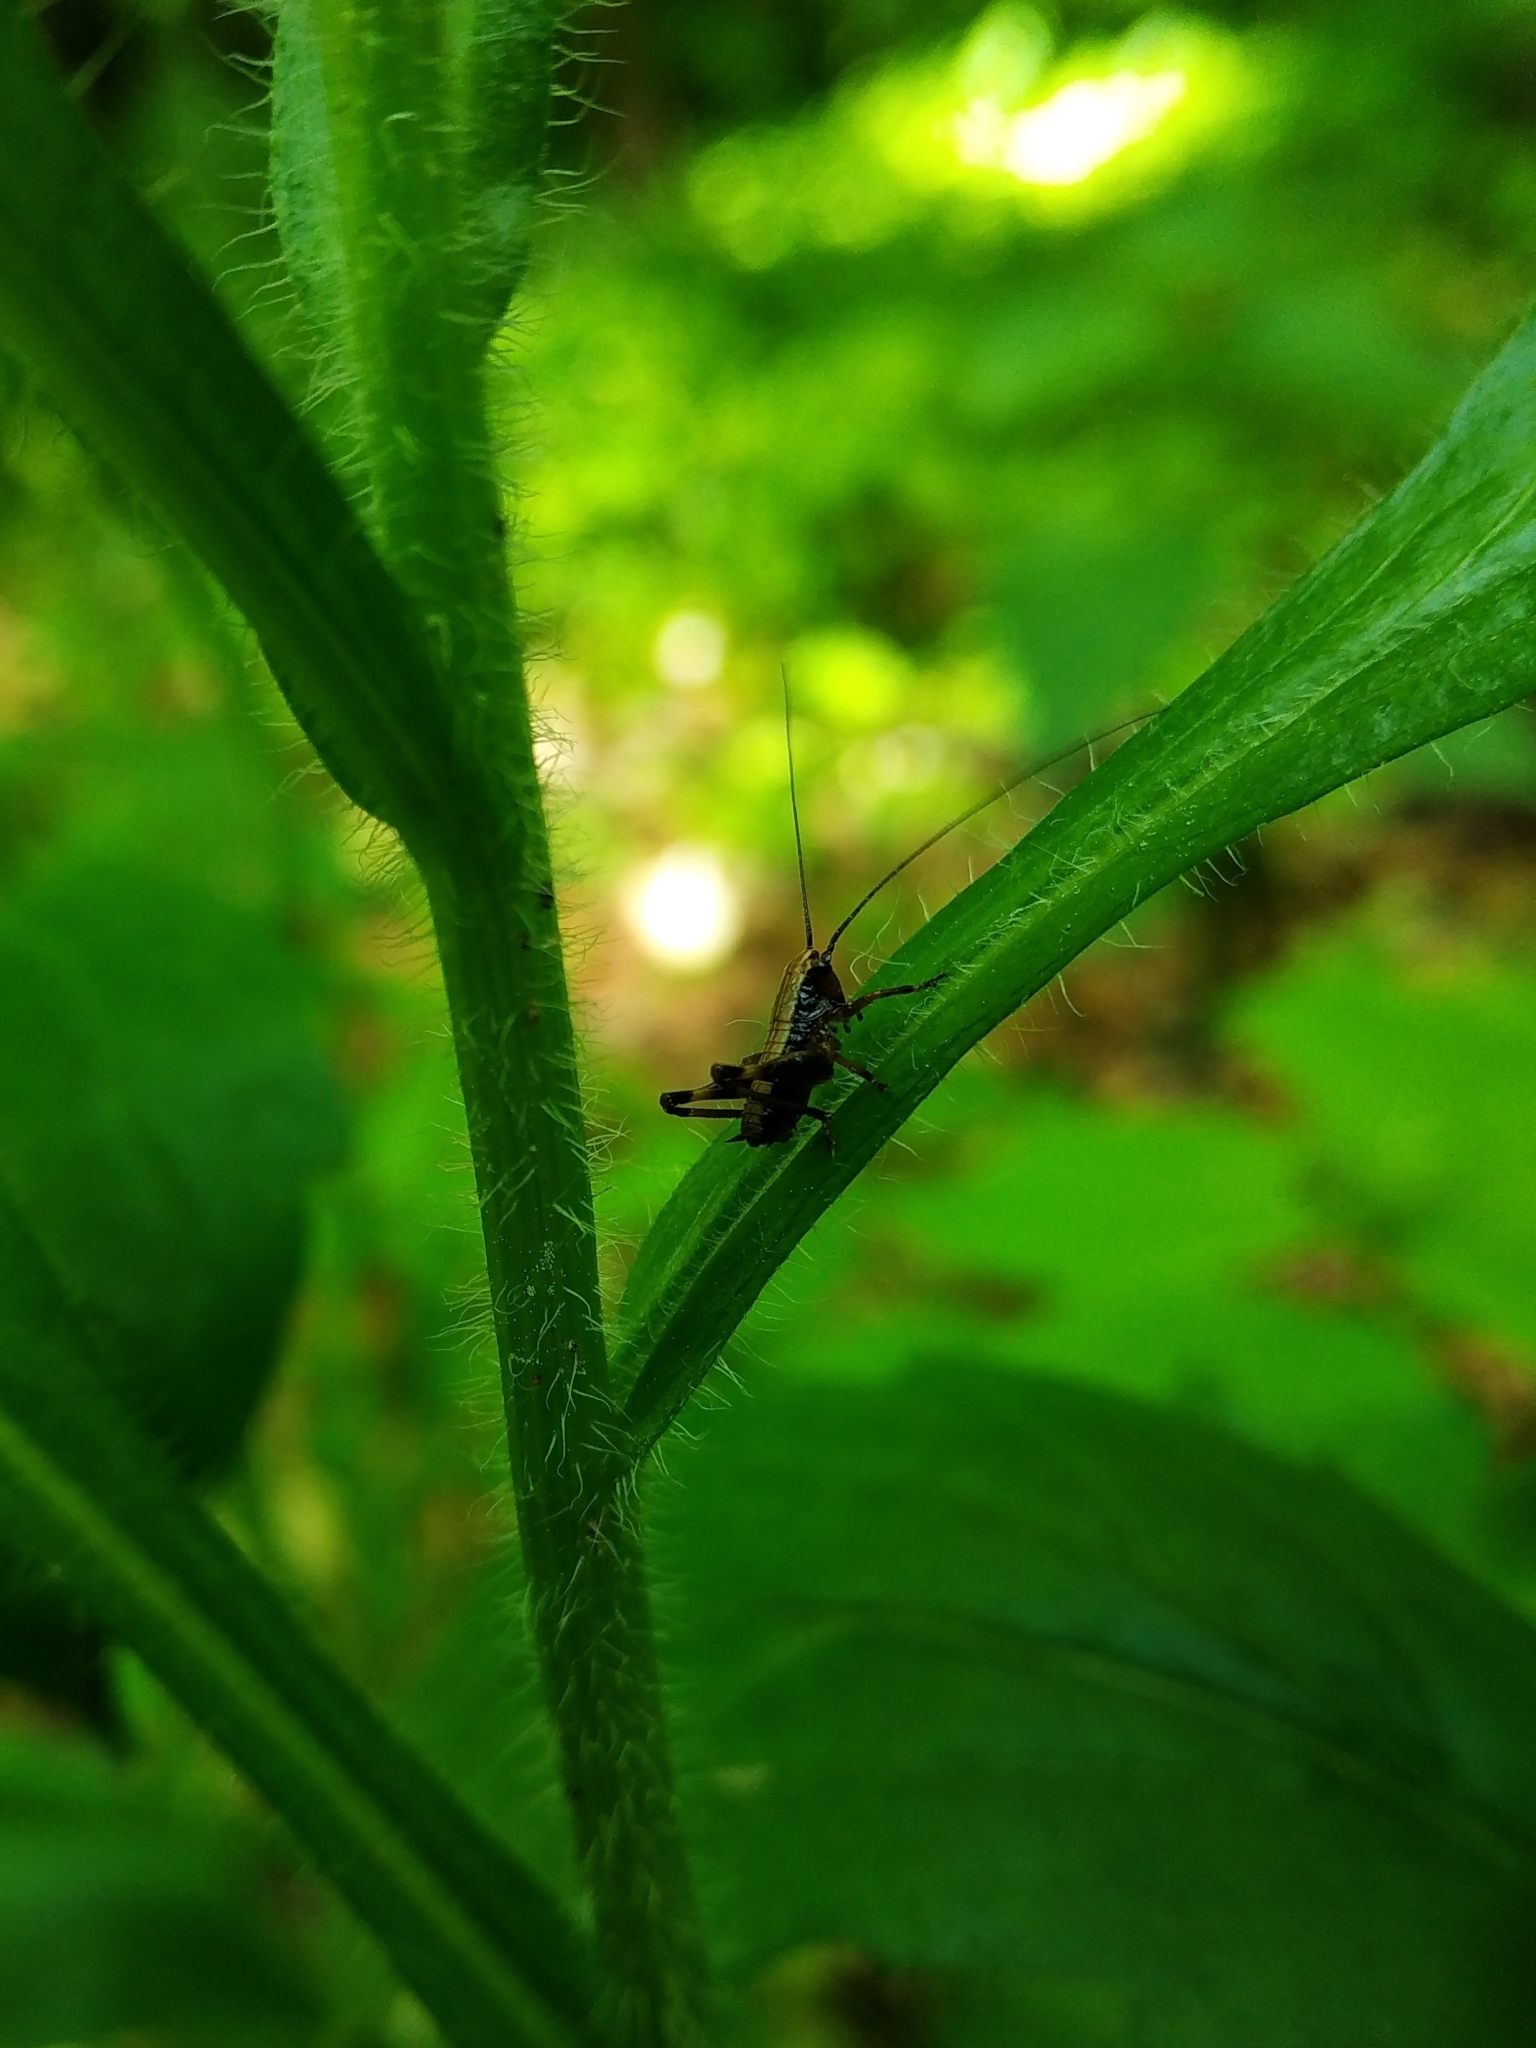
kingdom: Animalia
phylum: Arthropoda
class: Insecta
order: Orthoptera
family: Tettigoniidae
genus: Pholidoptera
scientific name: Pholidoptera griseoaptera
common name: Dark bush-cricket
